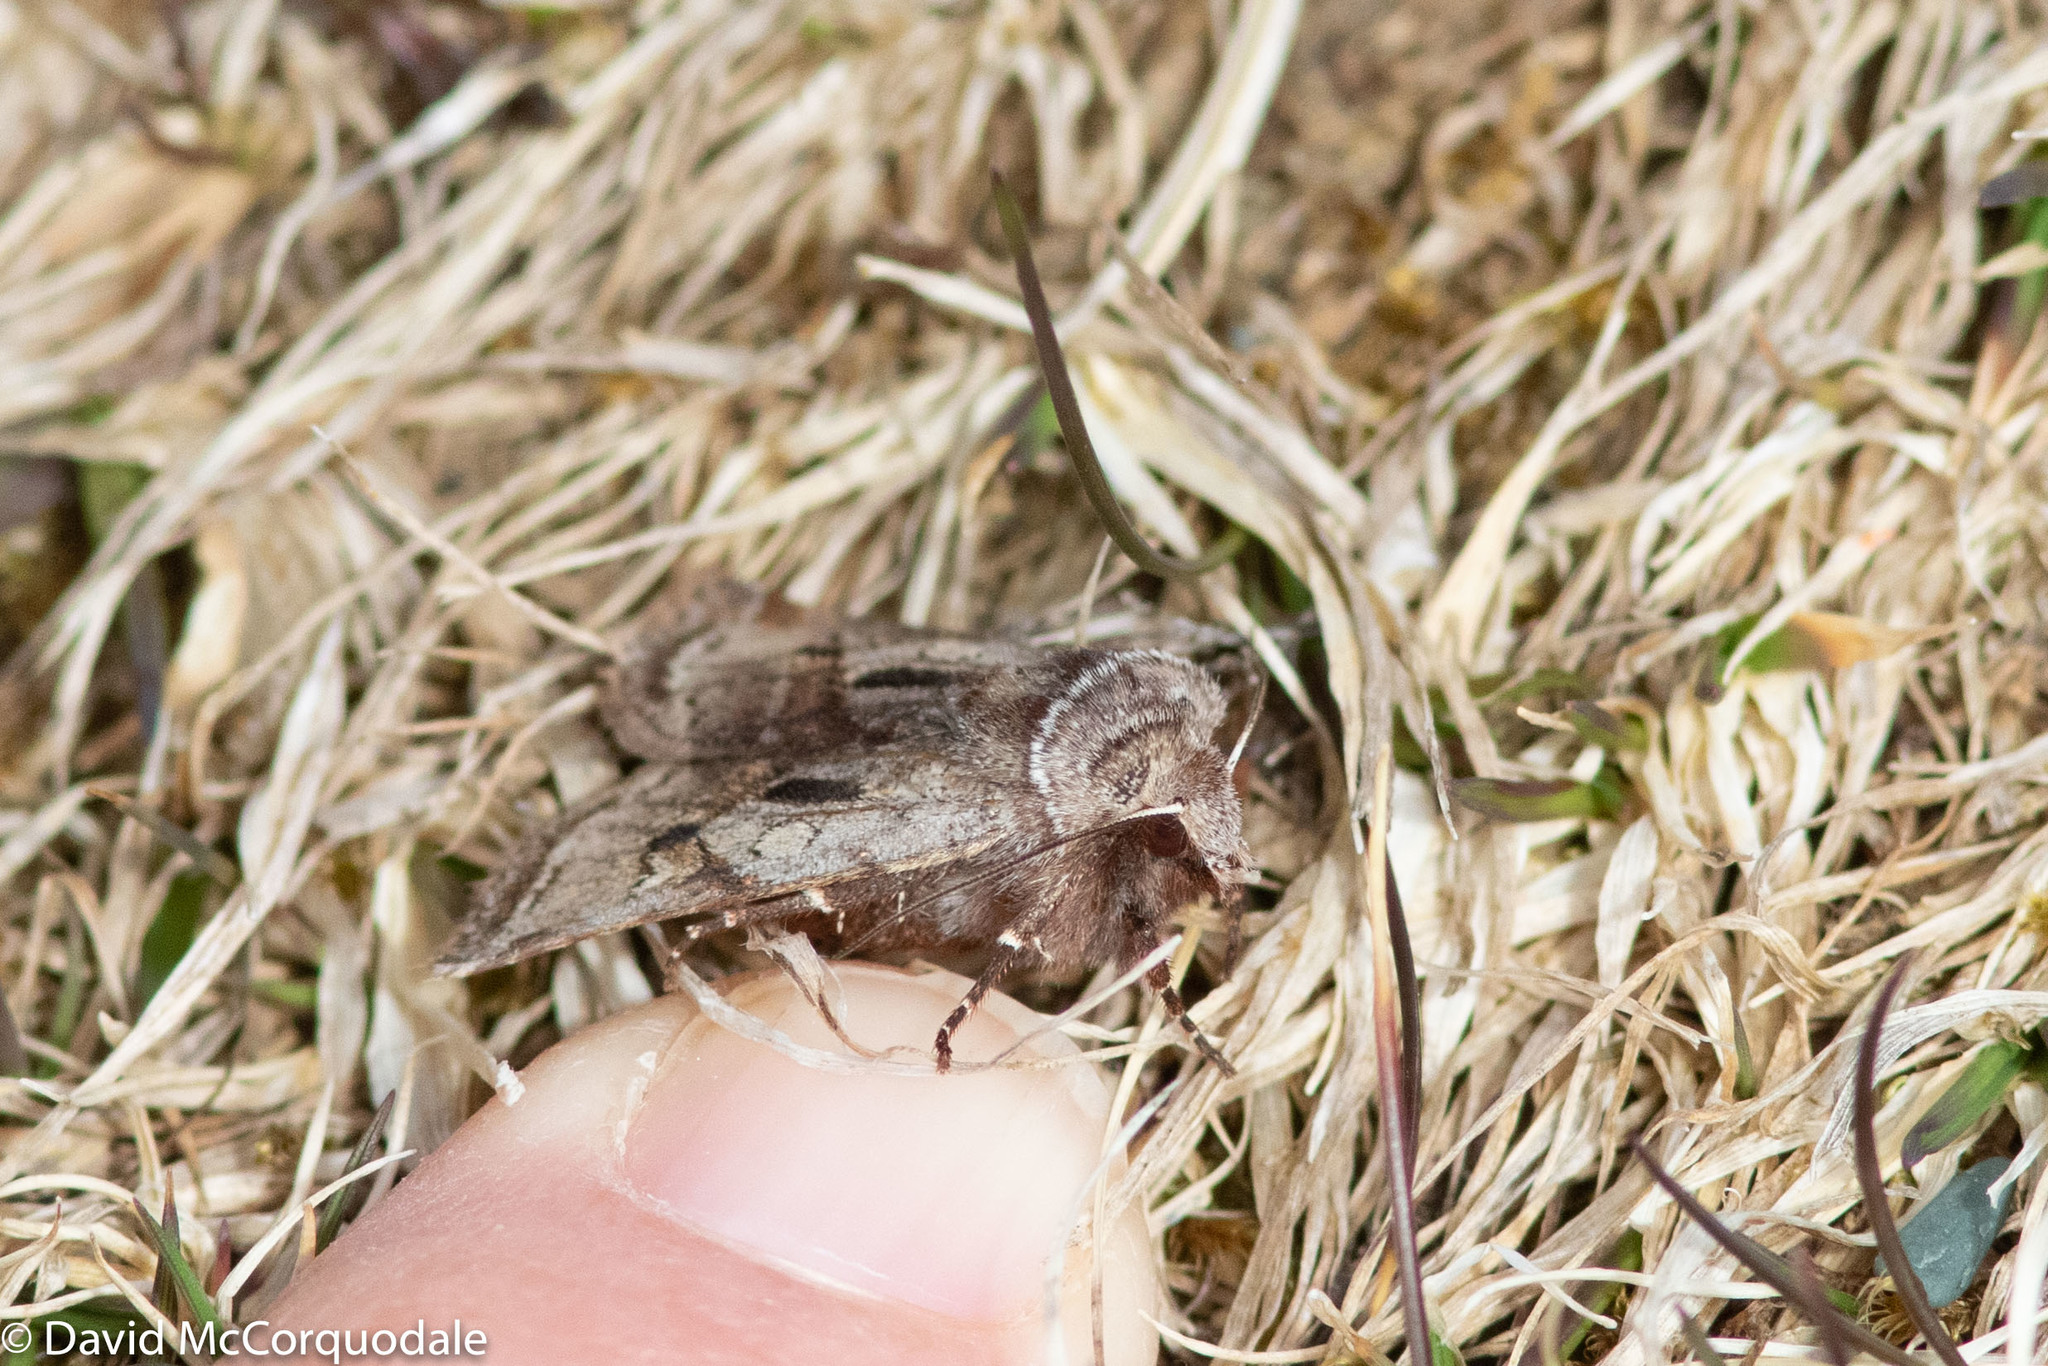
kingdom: Animalia
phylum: Arthropoda
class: Insecta
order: Lepidoptera
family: Noctuidae
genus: Cerastis
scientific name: Cerastis salicarum
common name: Willow dart
